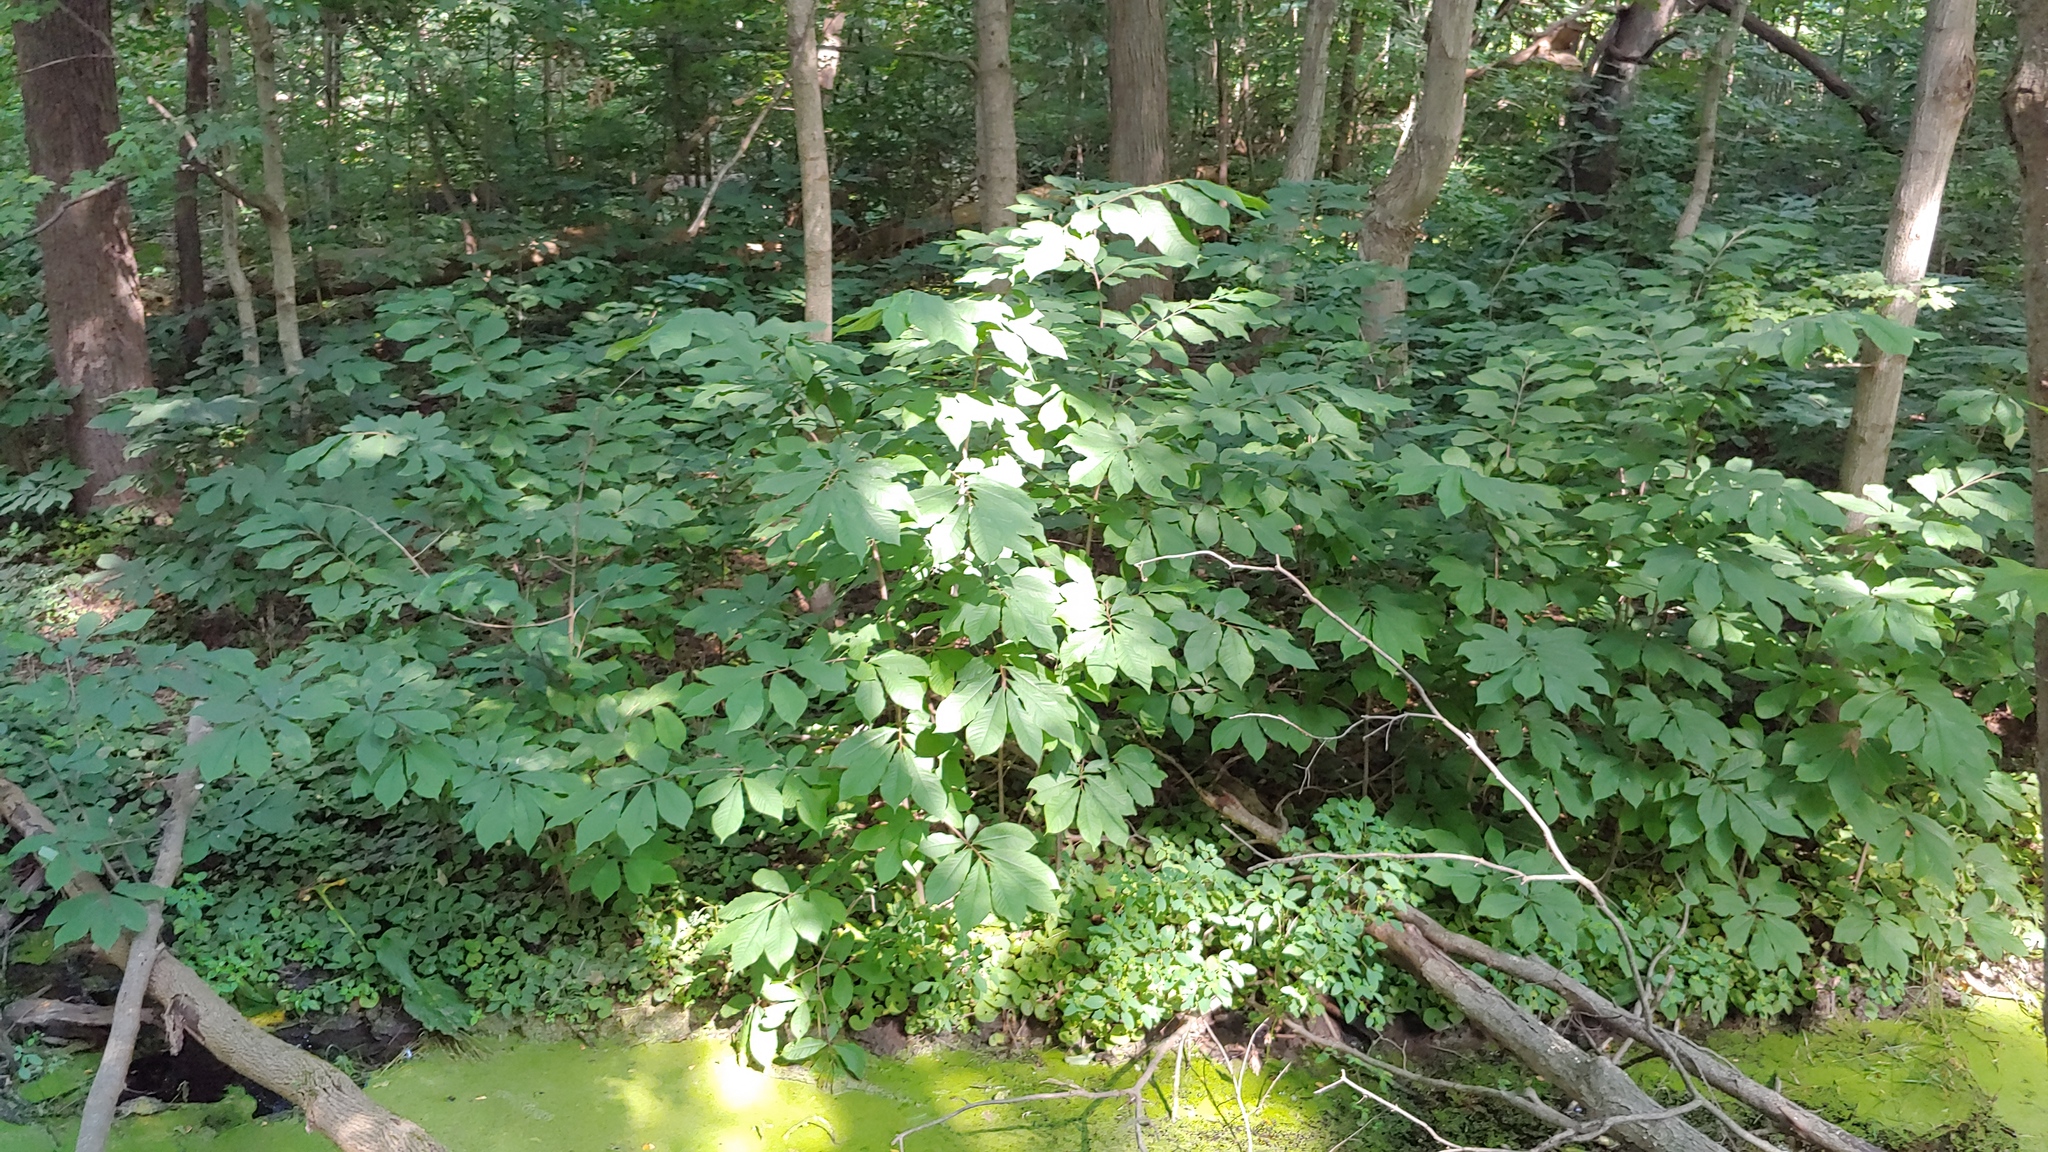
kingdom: Plantae
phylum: Tracheophyta
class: Magnoliopsida
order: Magnoliales
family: Annonaceae
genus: Asimina
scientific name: Asimina triloba
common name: Dog-banana
